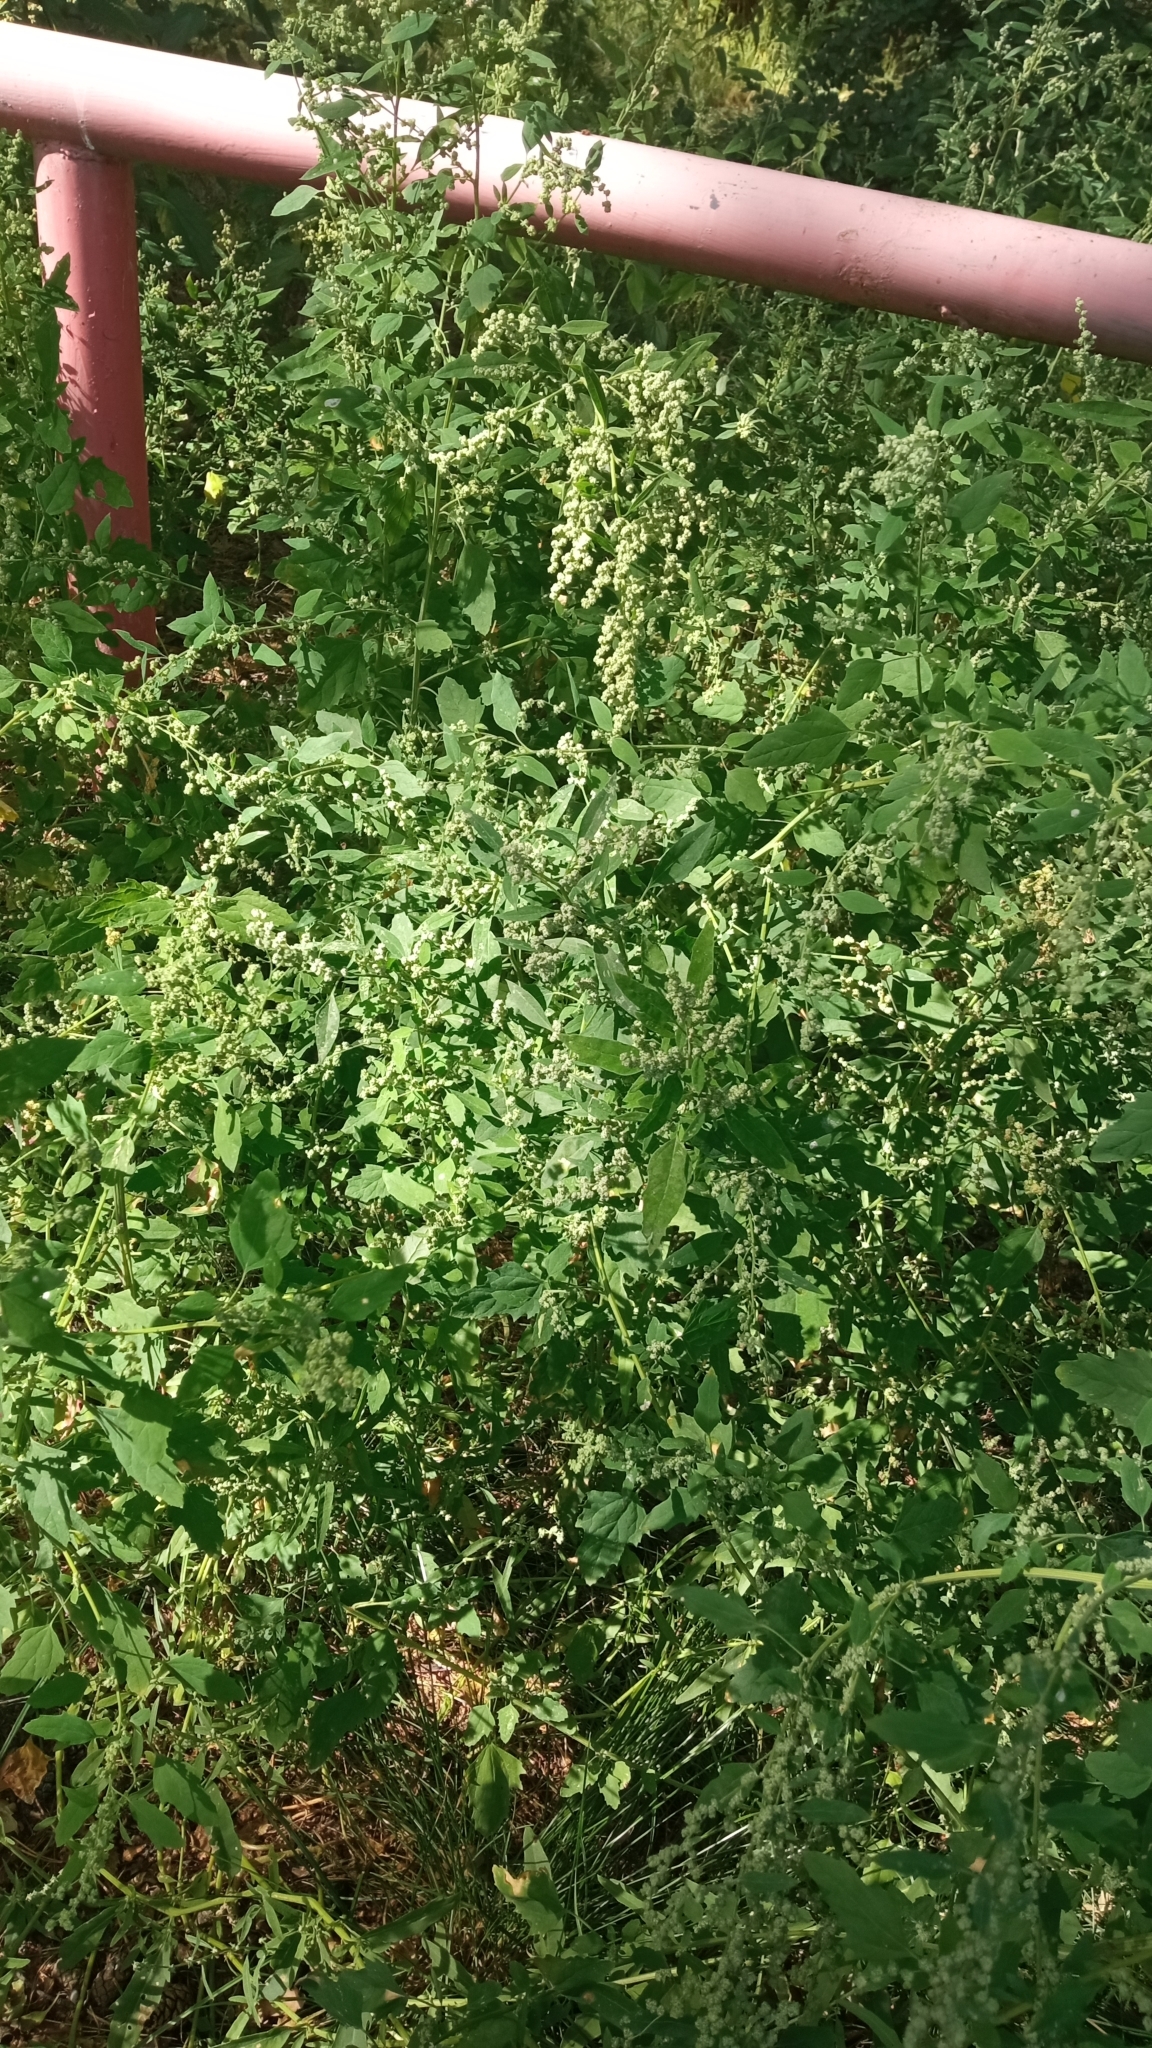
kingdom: Plantae
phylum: Tracheophyta
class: Magnoliopsida
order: Caryophyllales
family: Amaranthaceae
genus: Chenopodium
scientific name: Chenopodium album
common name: Fat-hen
